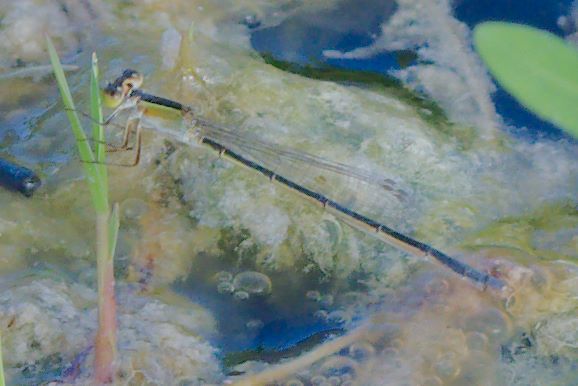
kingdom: Animalia
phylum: Arthropoda
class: Insecta
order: Odonata
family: Coenagrionidae
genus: Ischnura
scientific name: Ischnura ramburii
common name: Rambur's forktail
